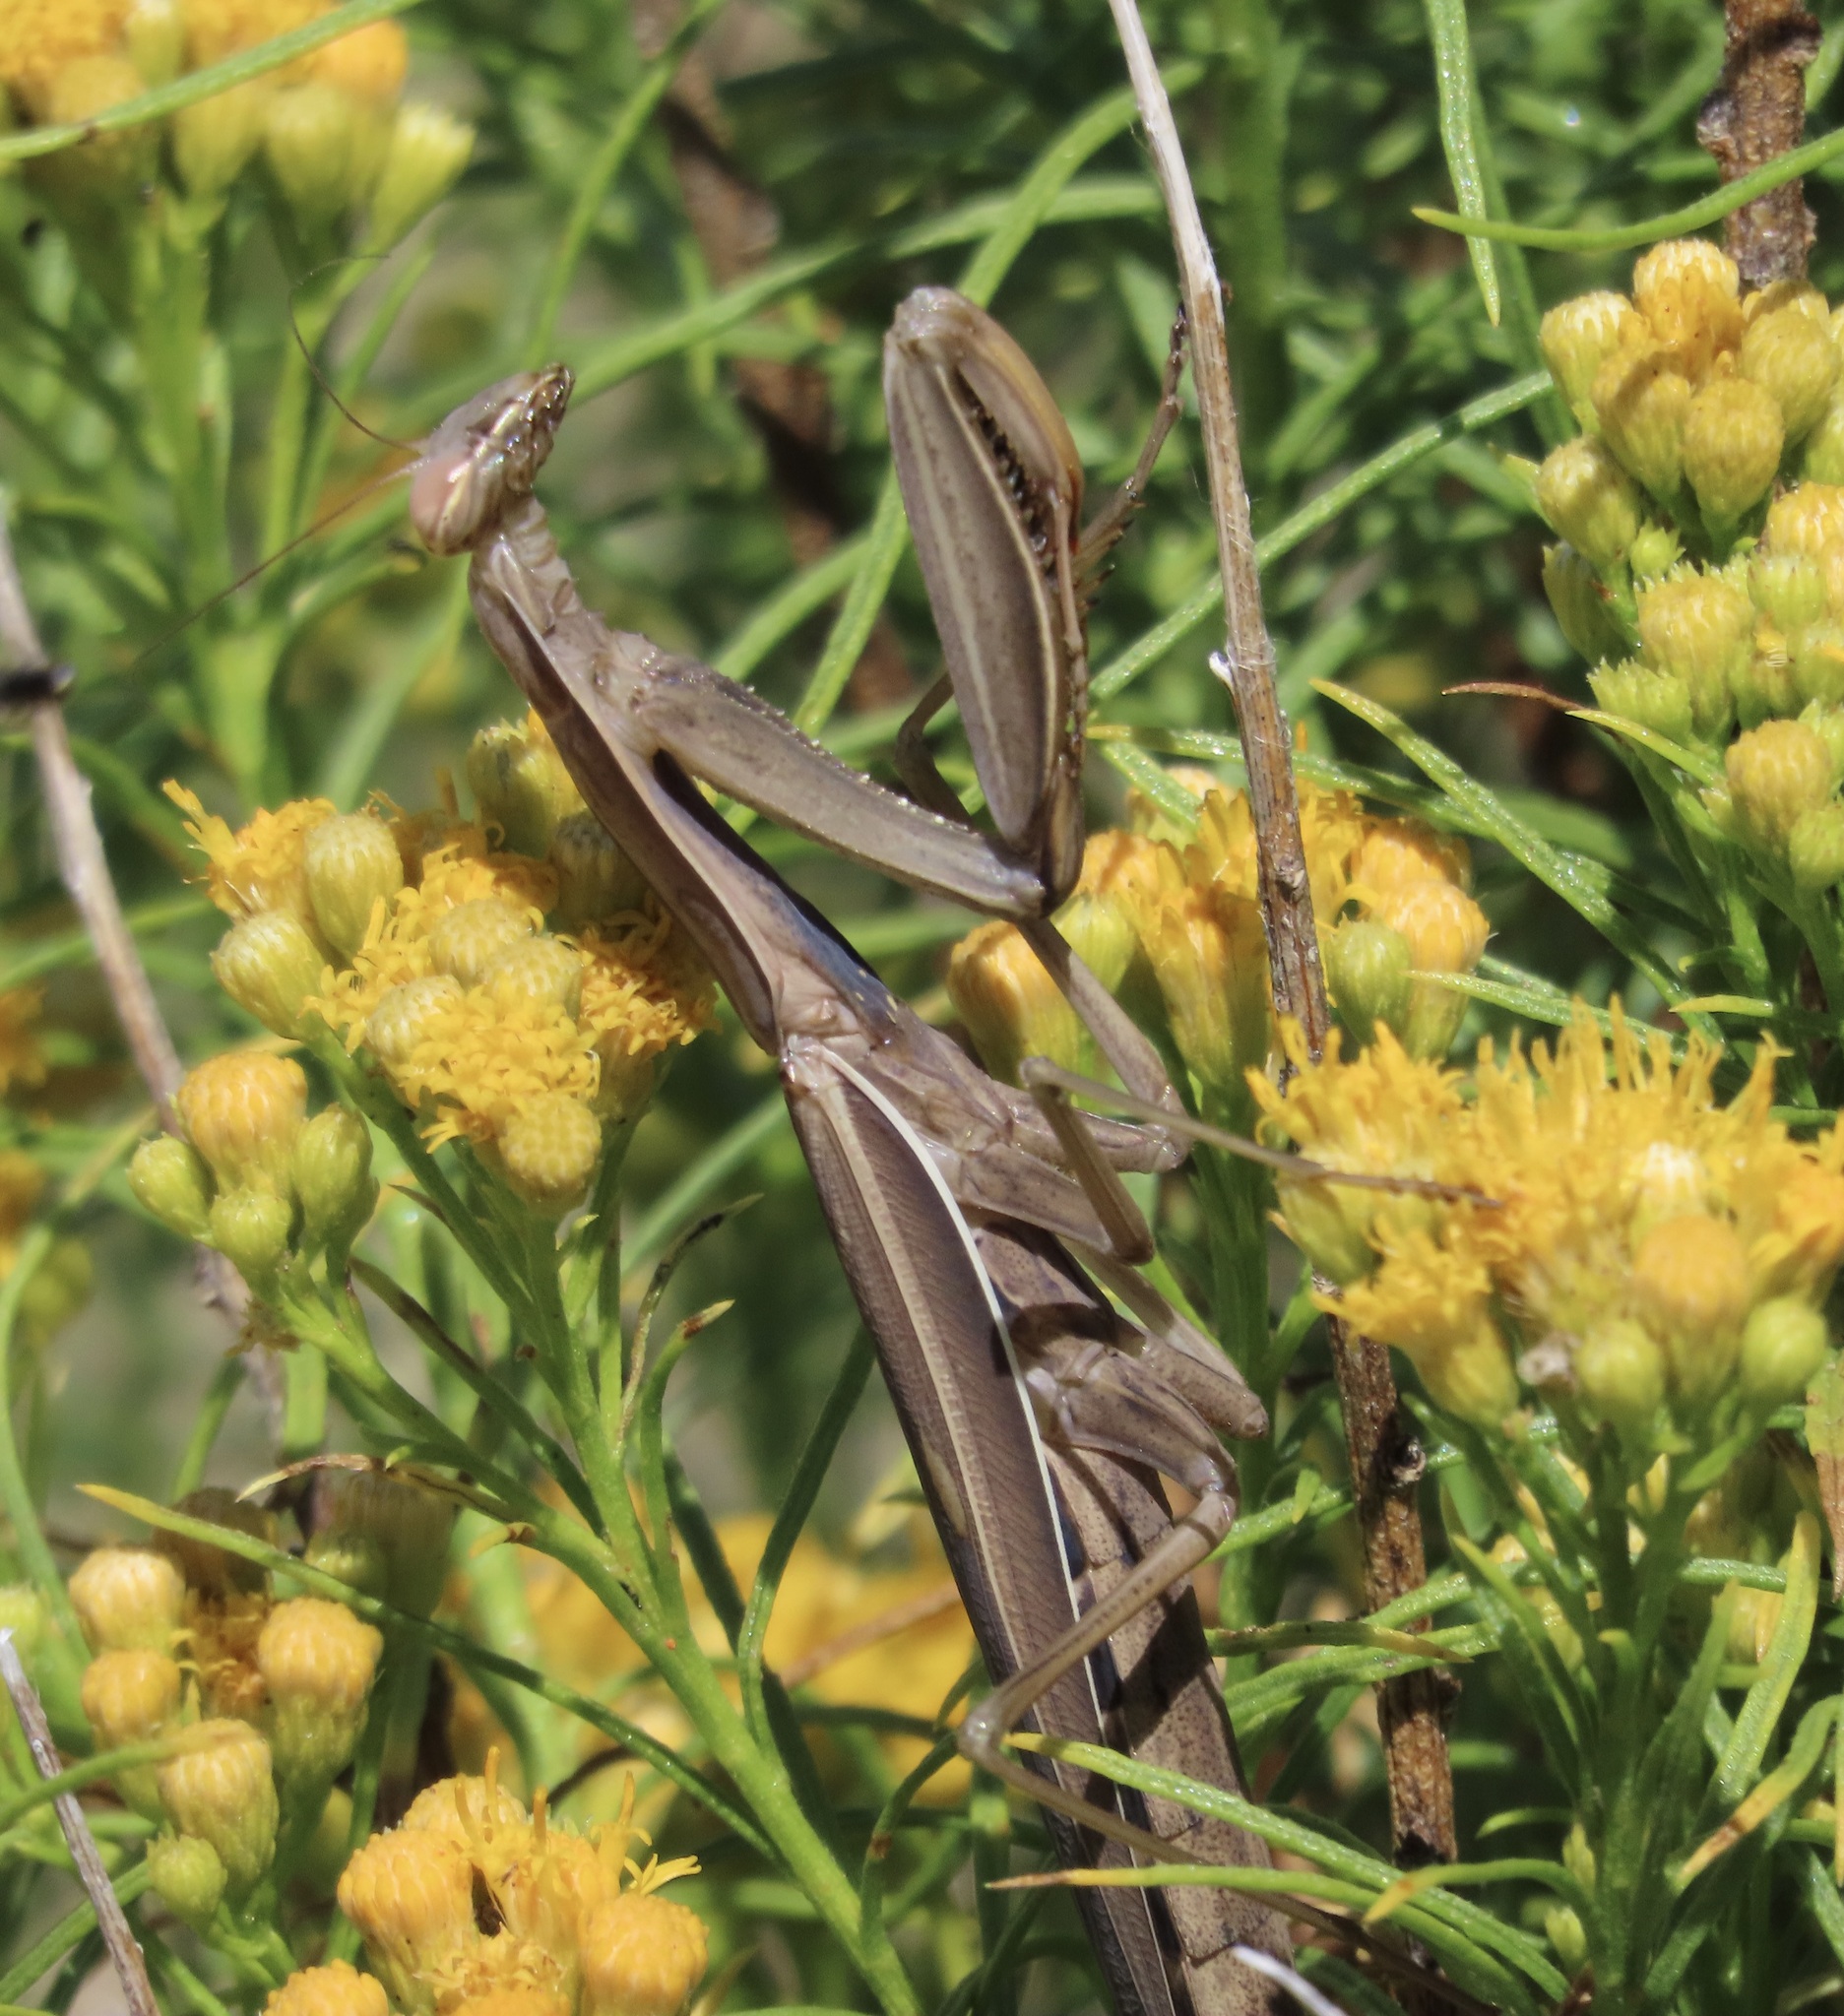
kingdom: Animalia
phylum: Arthropoda
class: Insecta
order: Mantodea
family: Mantidae
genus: Mantis
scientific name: Mantis religiosa
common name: Praying mantis
